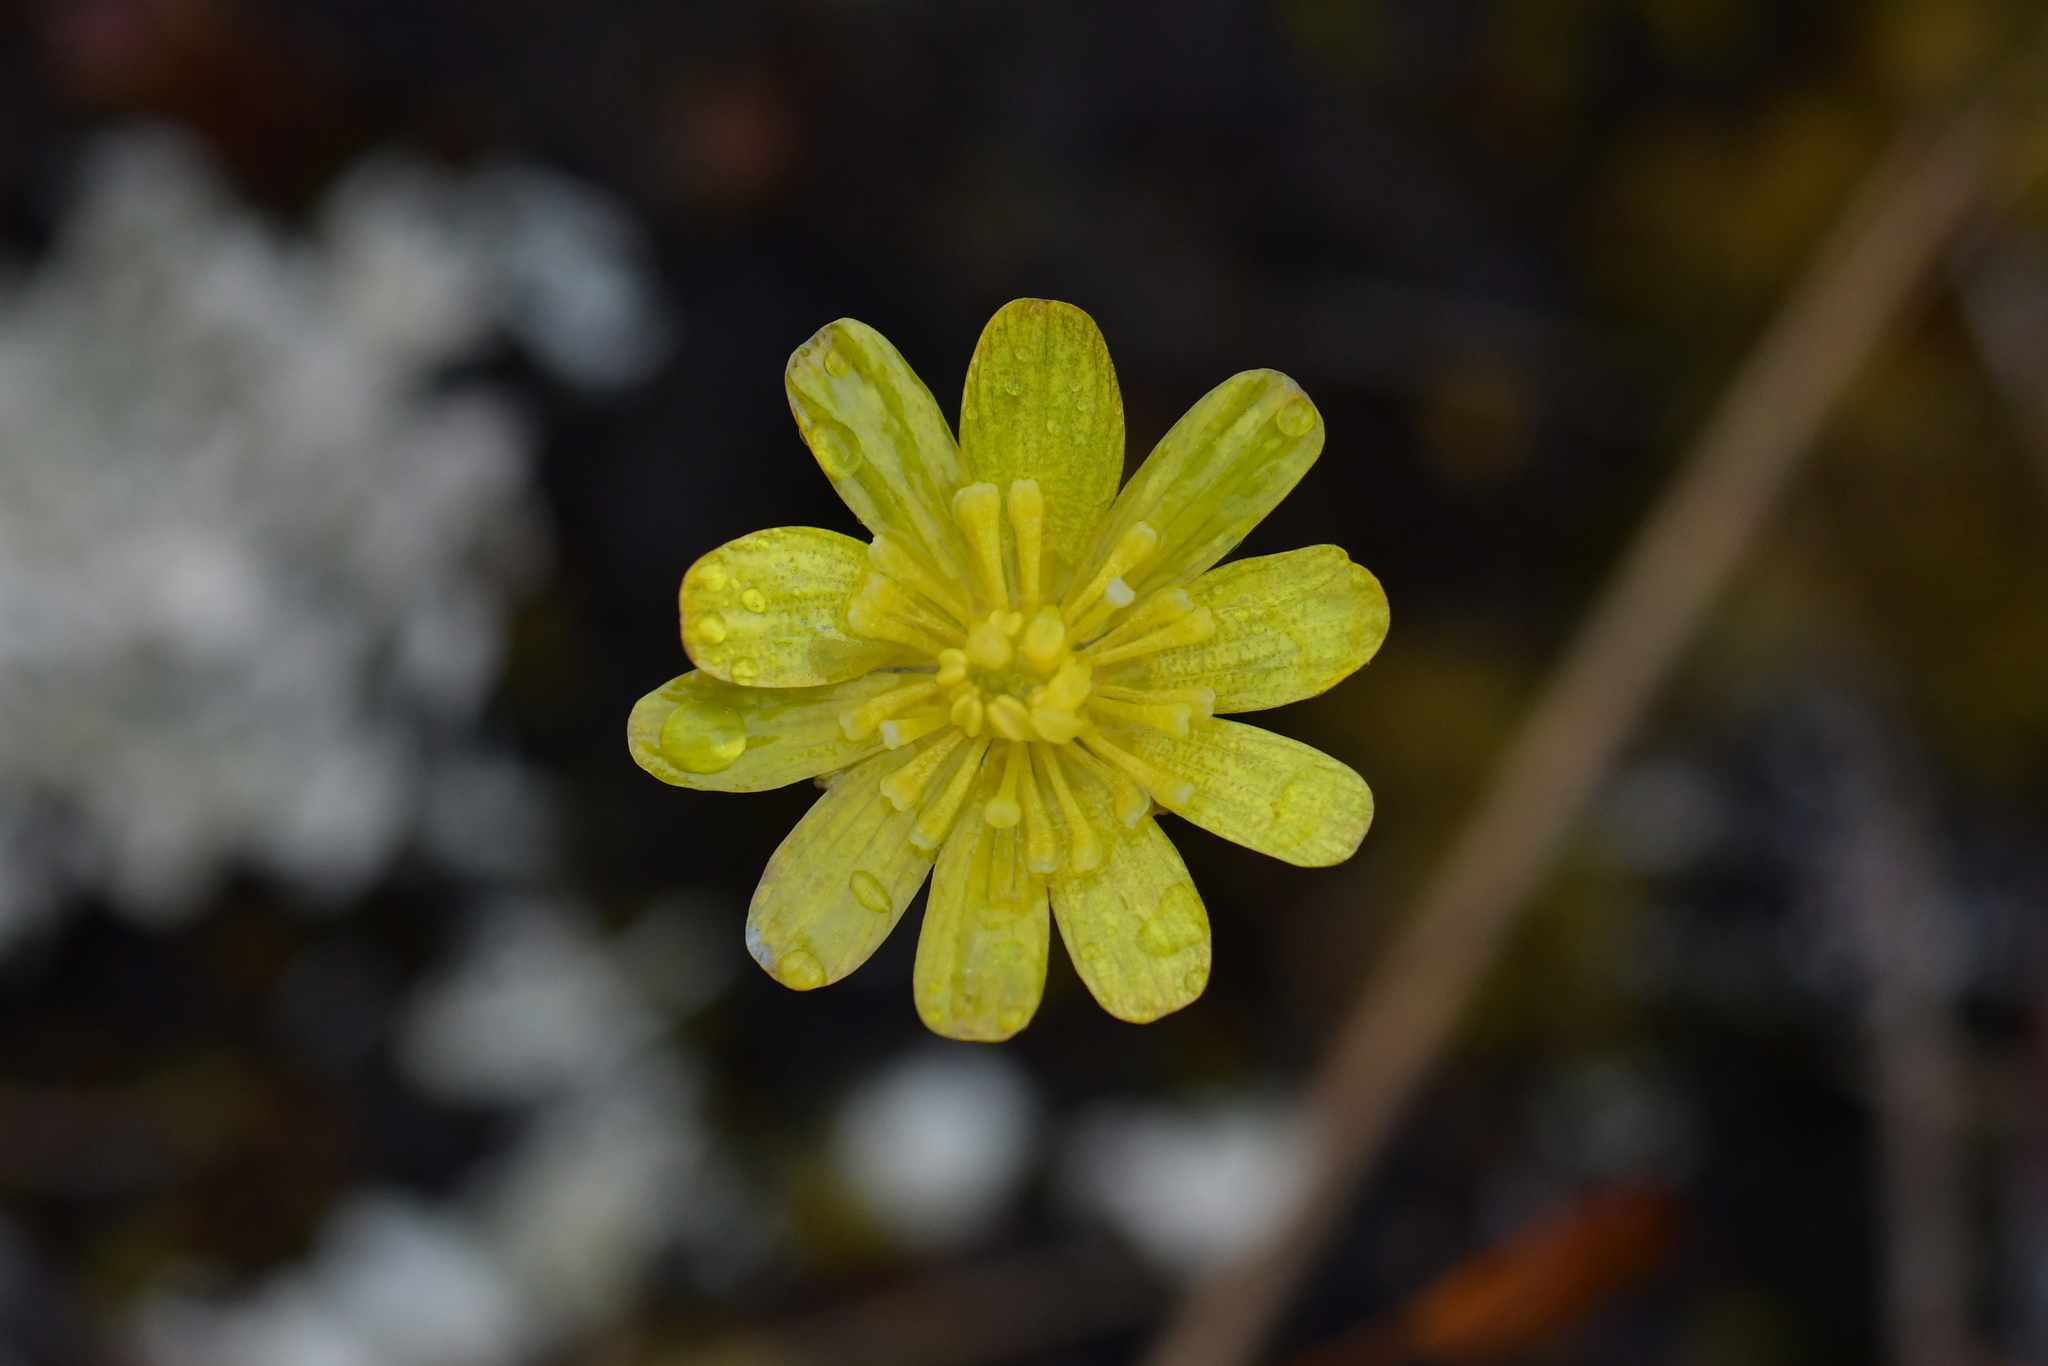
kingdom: Plantae
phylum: Tracheophyta
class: Magnoliopsida
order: Ranunculales
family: Ranunculaceae
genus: Ranunculus
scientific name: Ranunculus verticillatus
